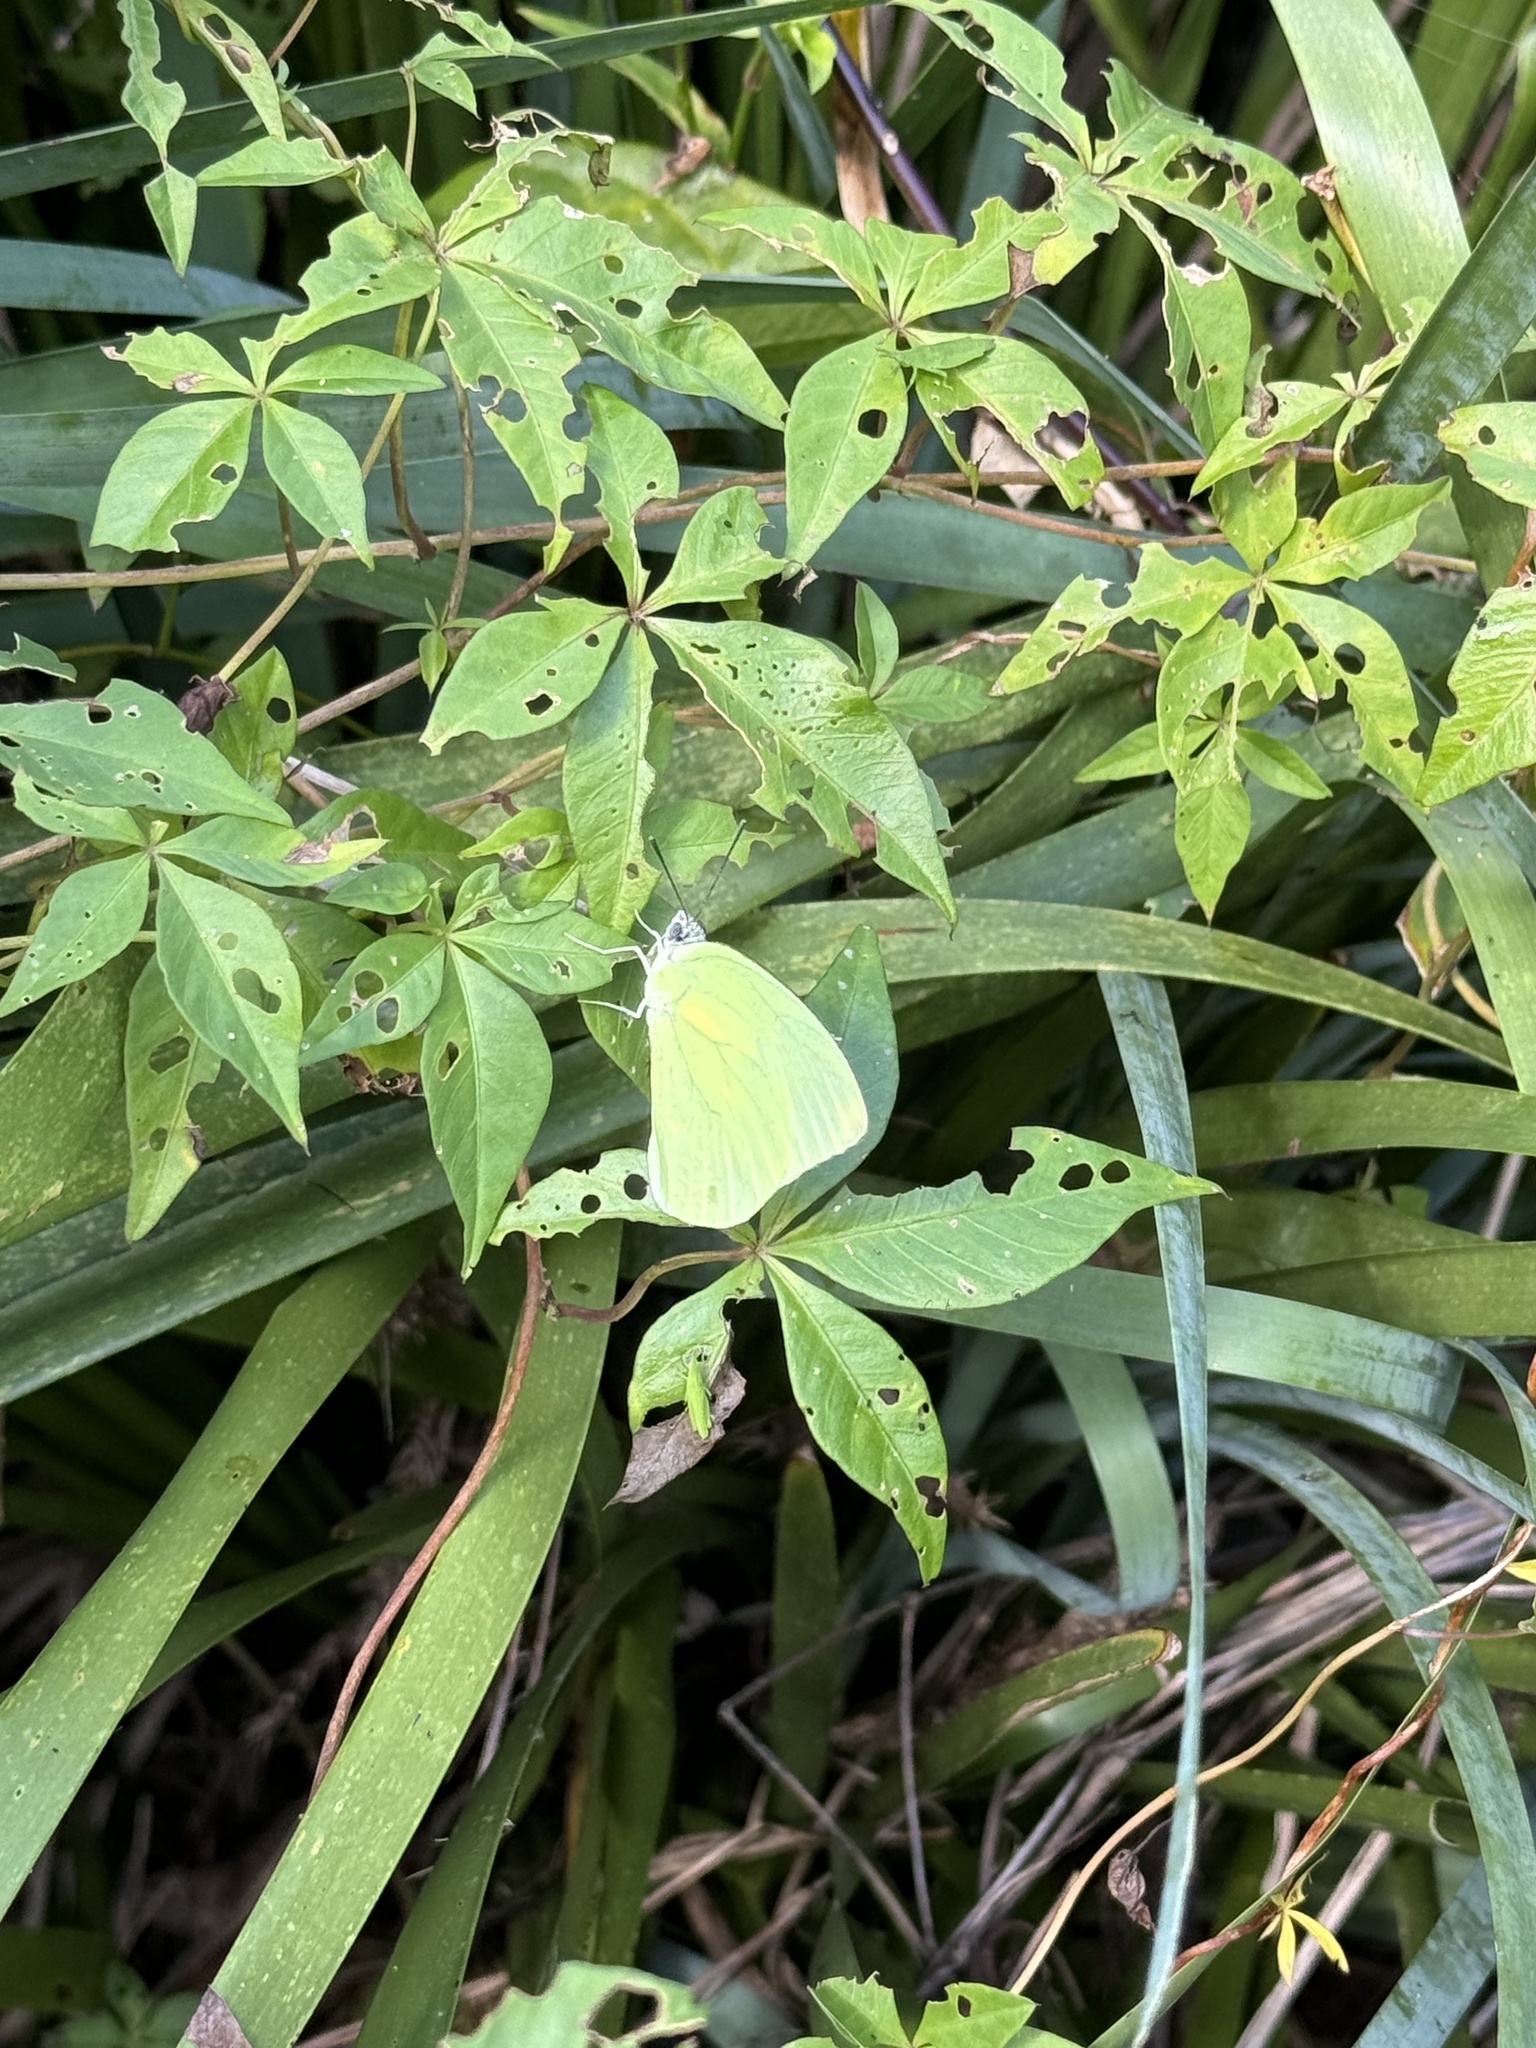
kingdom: Animalia
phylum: Arthropoda
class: Insecta
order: Lepidoptera
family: Pieridae
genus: Catopsilia
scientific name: Catopsilia pomona
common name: Common emigrant
